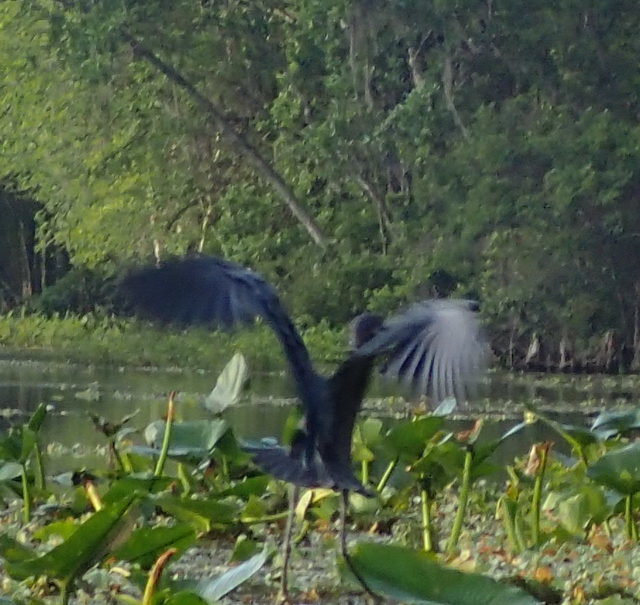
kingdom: Animalia
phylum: Chordata
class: Aves
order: Pelecaniformes
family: Ardeidae
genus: Egretta
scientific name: Egretta caerulea
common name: Little blue heron
